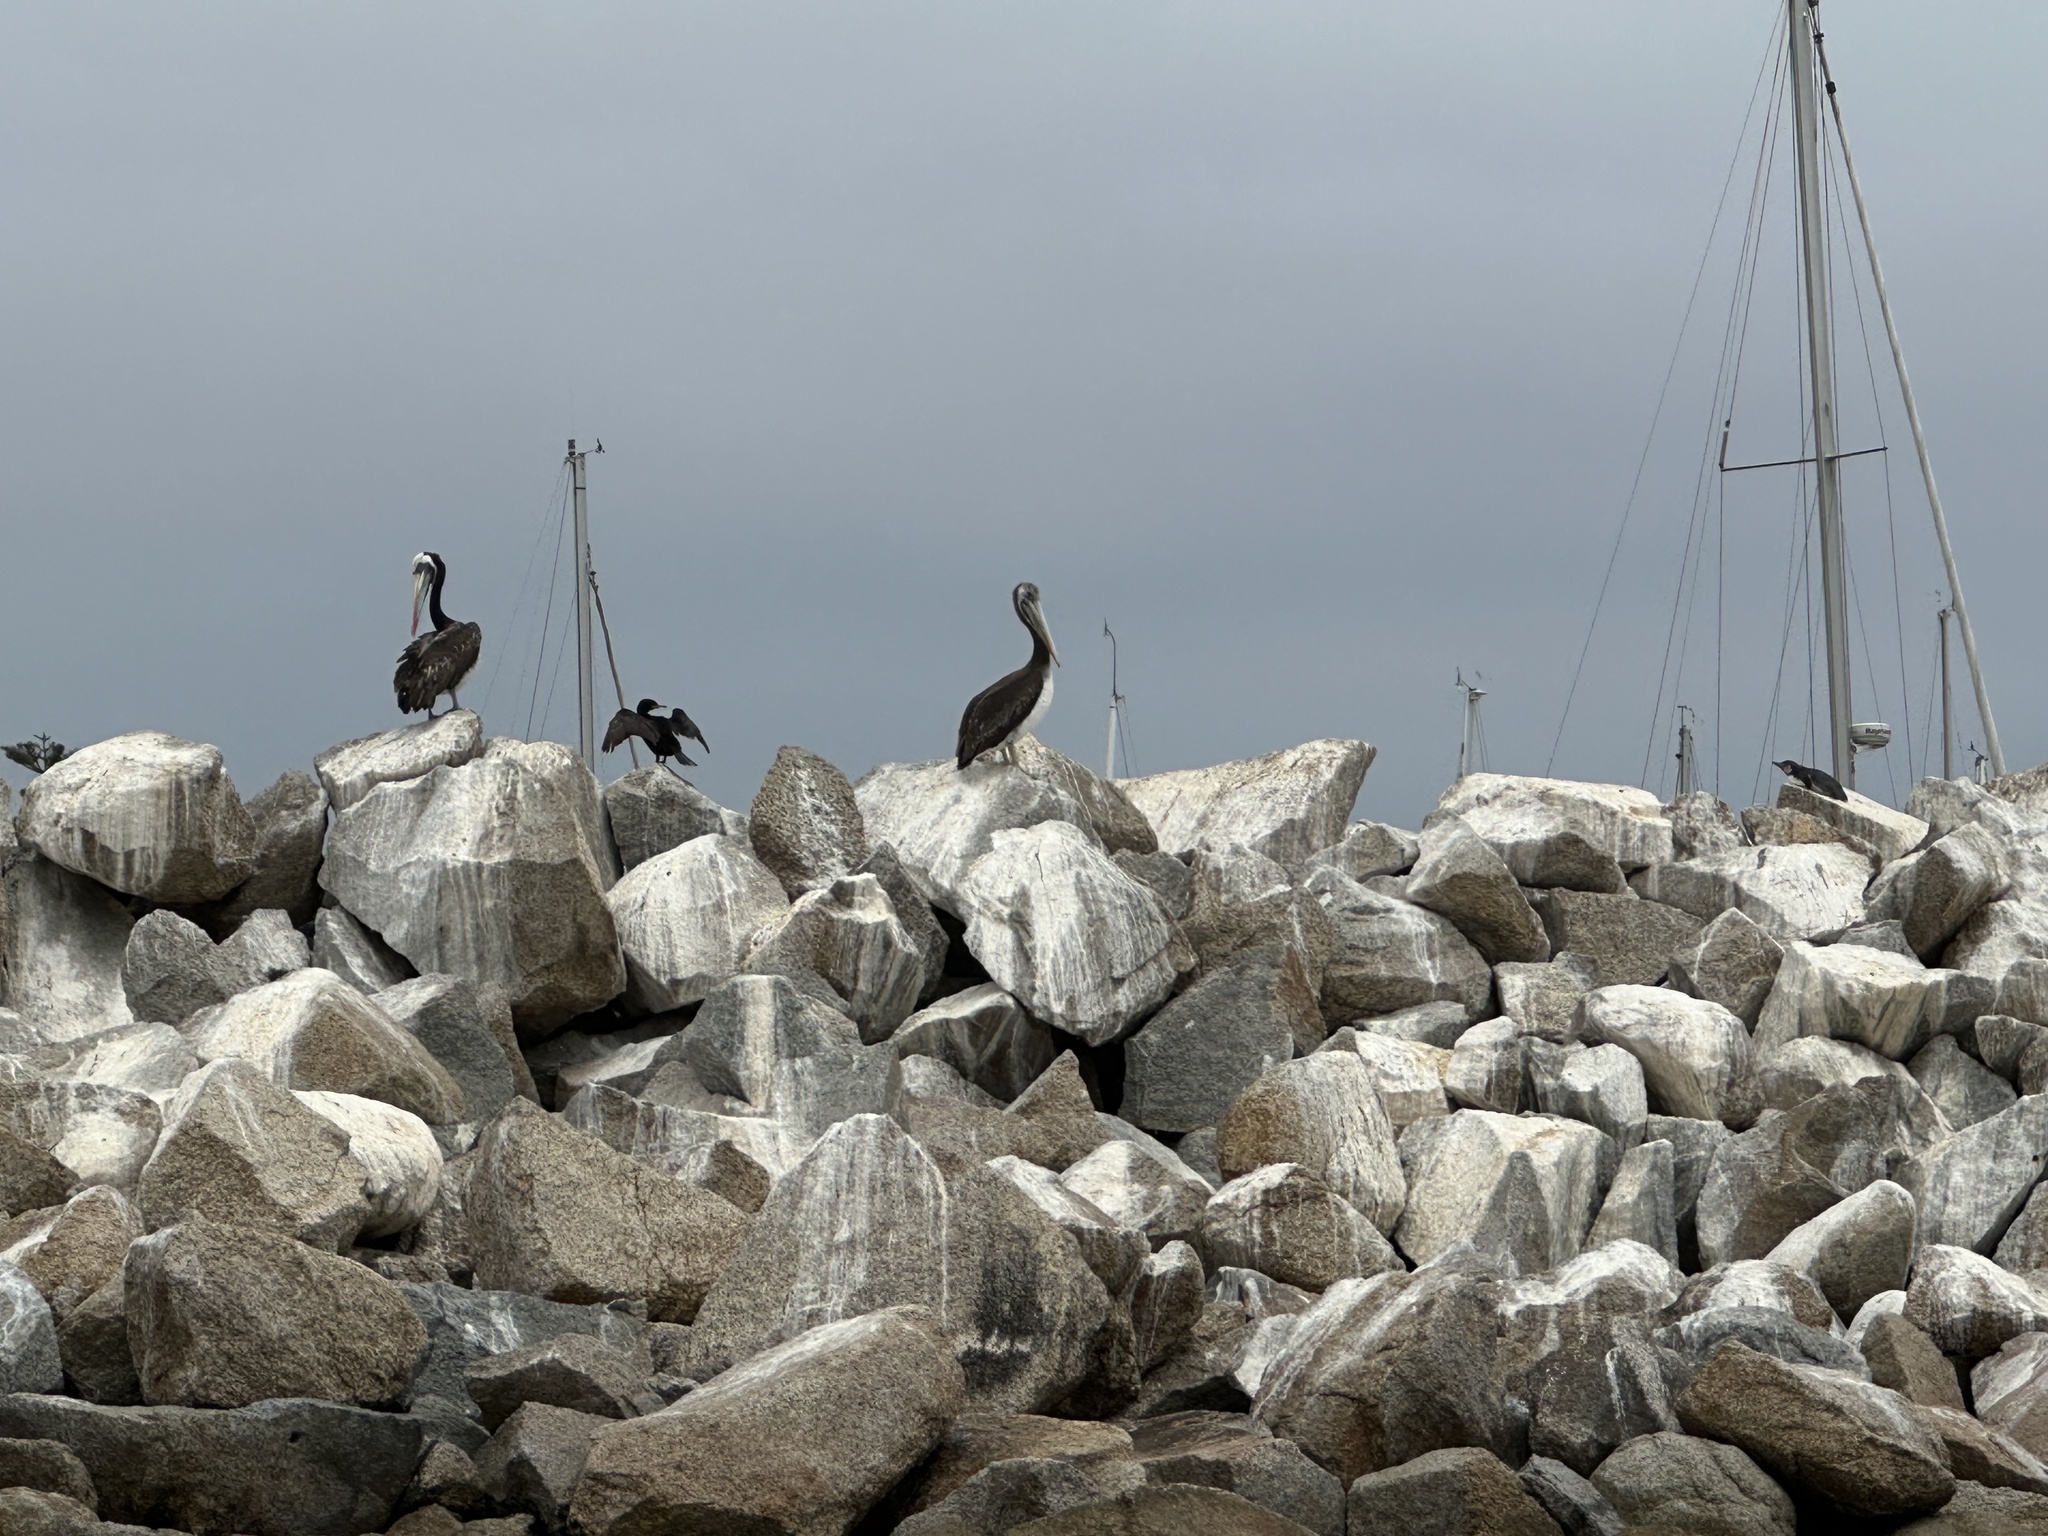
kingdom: Animalia
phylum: Chordata
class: Aves
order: Pelecaniformes
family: Pelecanidae
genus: Pelecanus
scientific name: Pelecanus thagus
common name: Peruvian pelican
